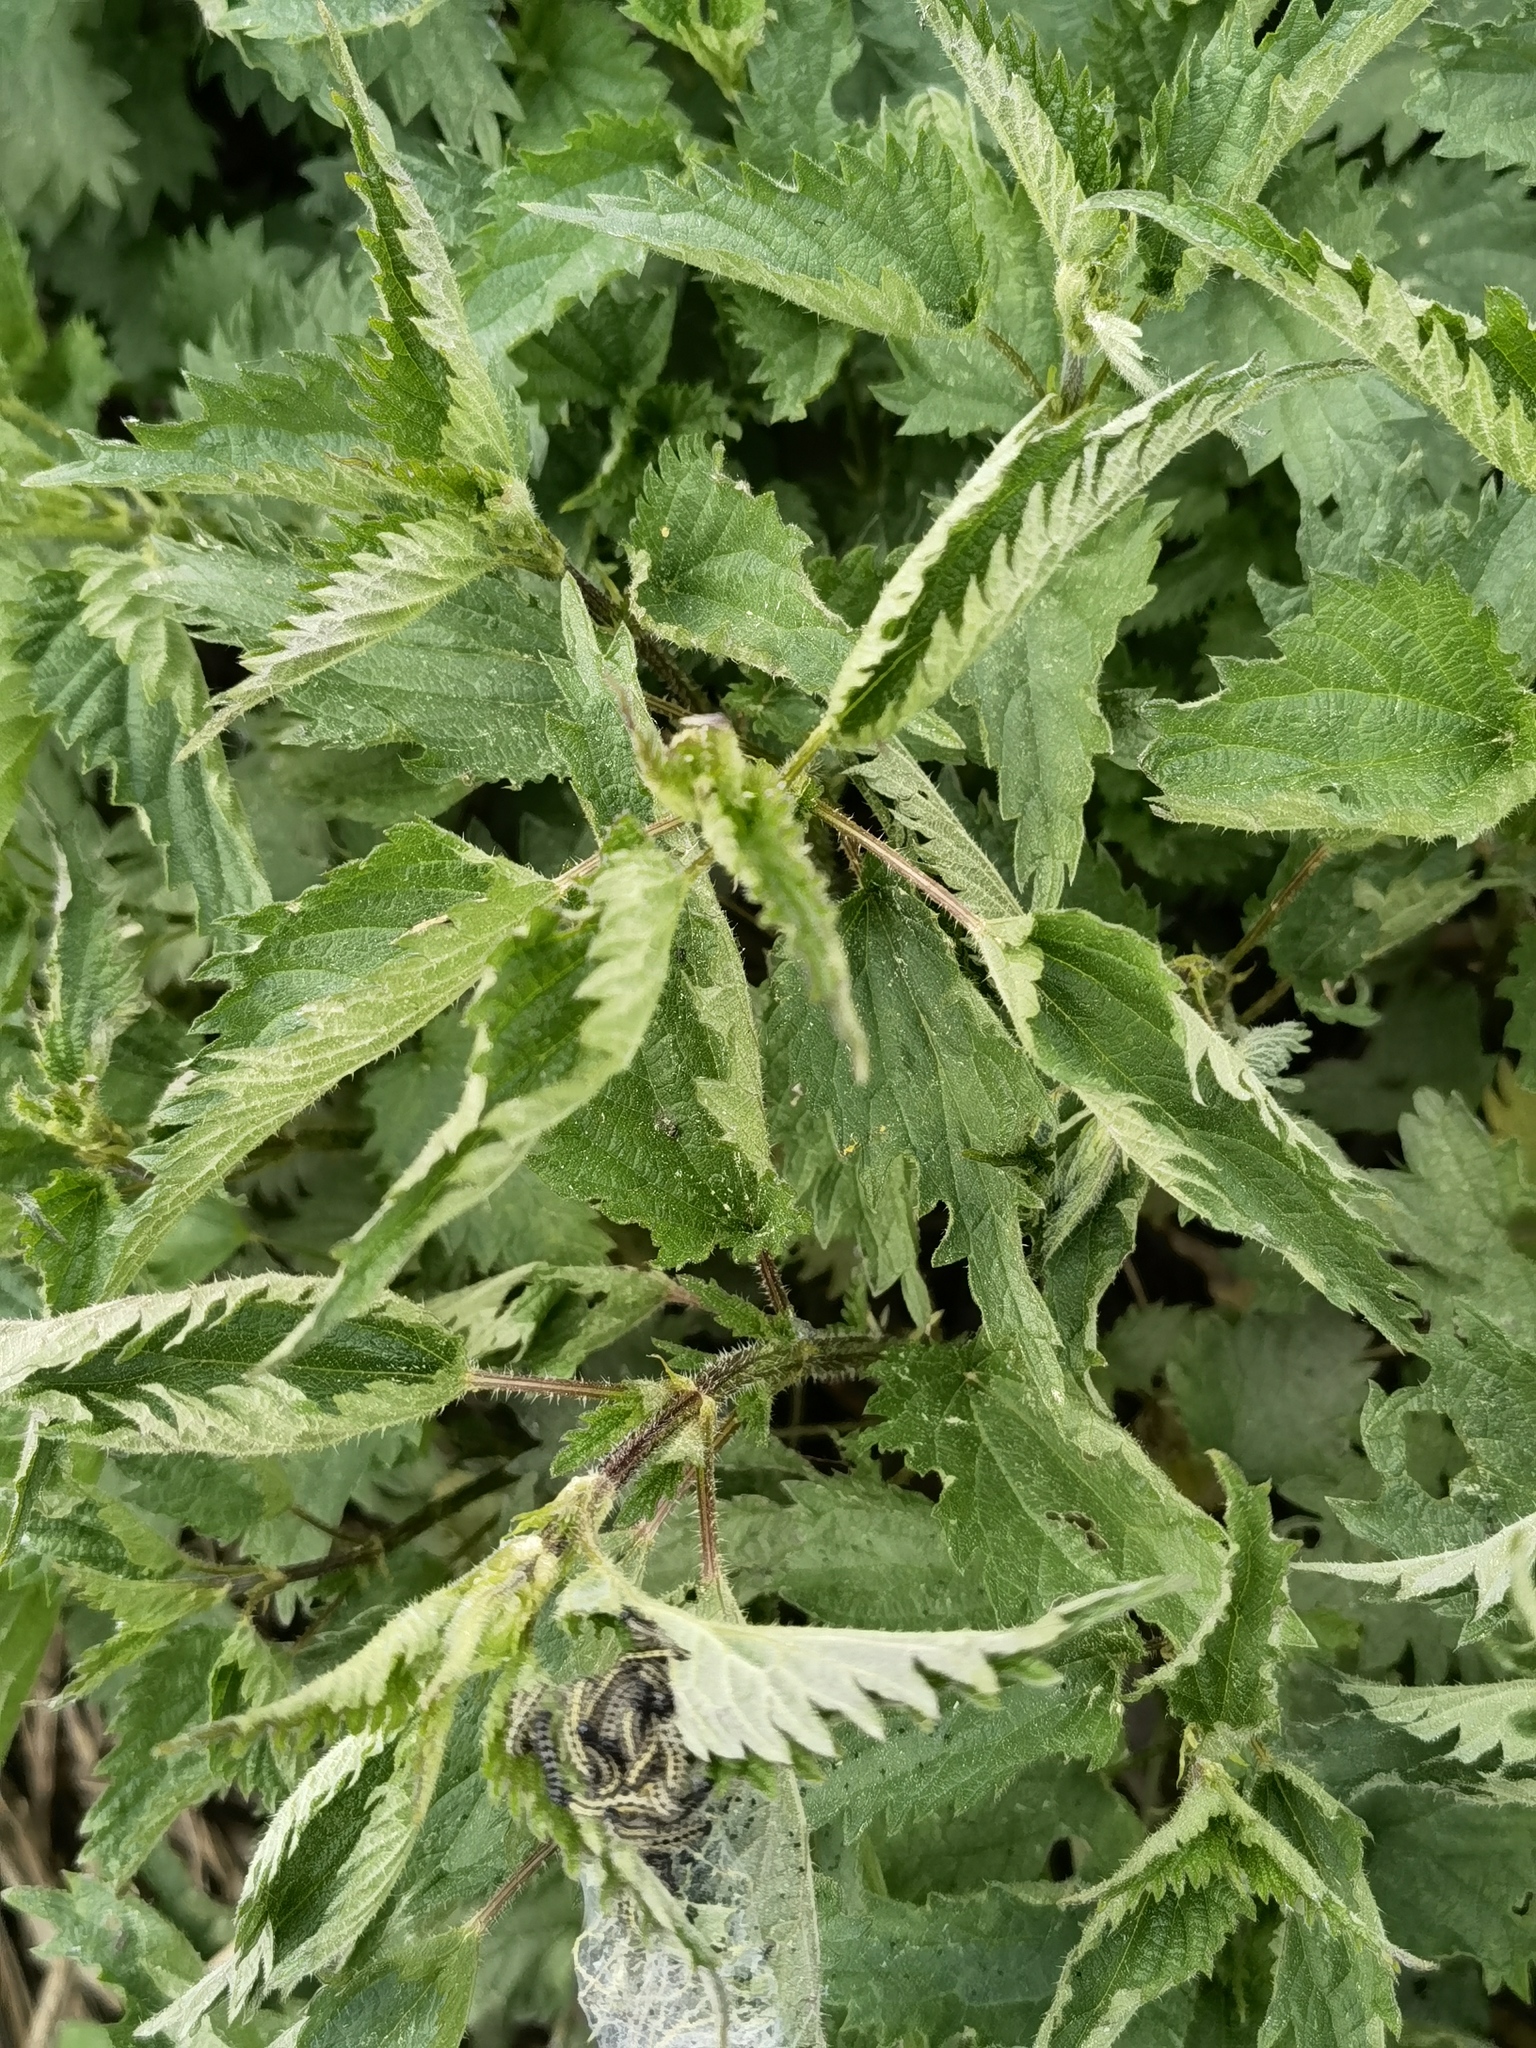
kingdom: Animalia
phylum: Arthropoda
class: Insecta
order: Lepidoptera
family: Nymphalidae
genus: Aglais
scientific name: Aglais urticae
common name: Small tortoiseshell
